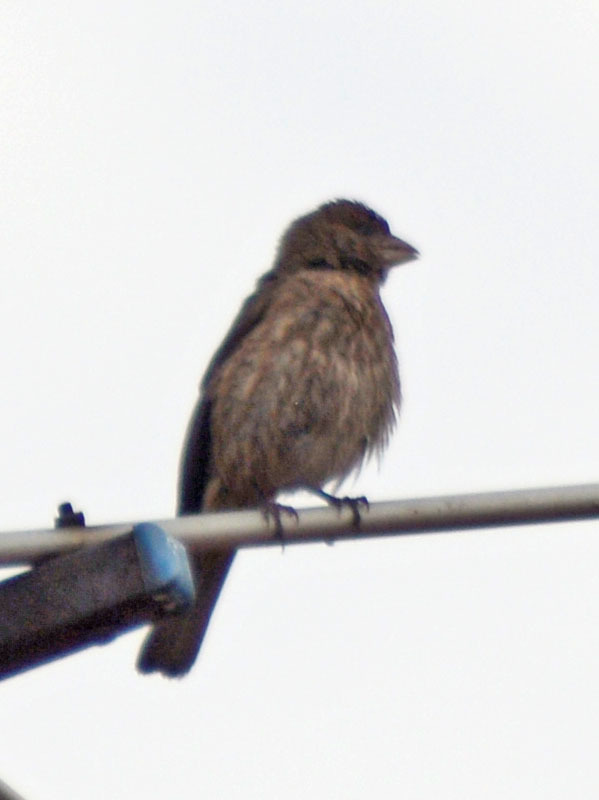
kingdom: Animalia
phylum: Chordata
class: Aves
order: Passeriformes
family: Fringillidae
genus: Haemorhous
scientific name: Haemorhous mexicanus
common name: House finch
